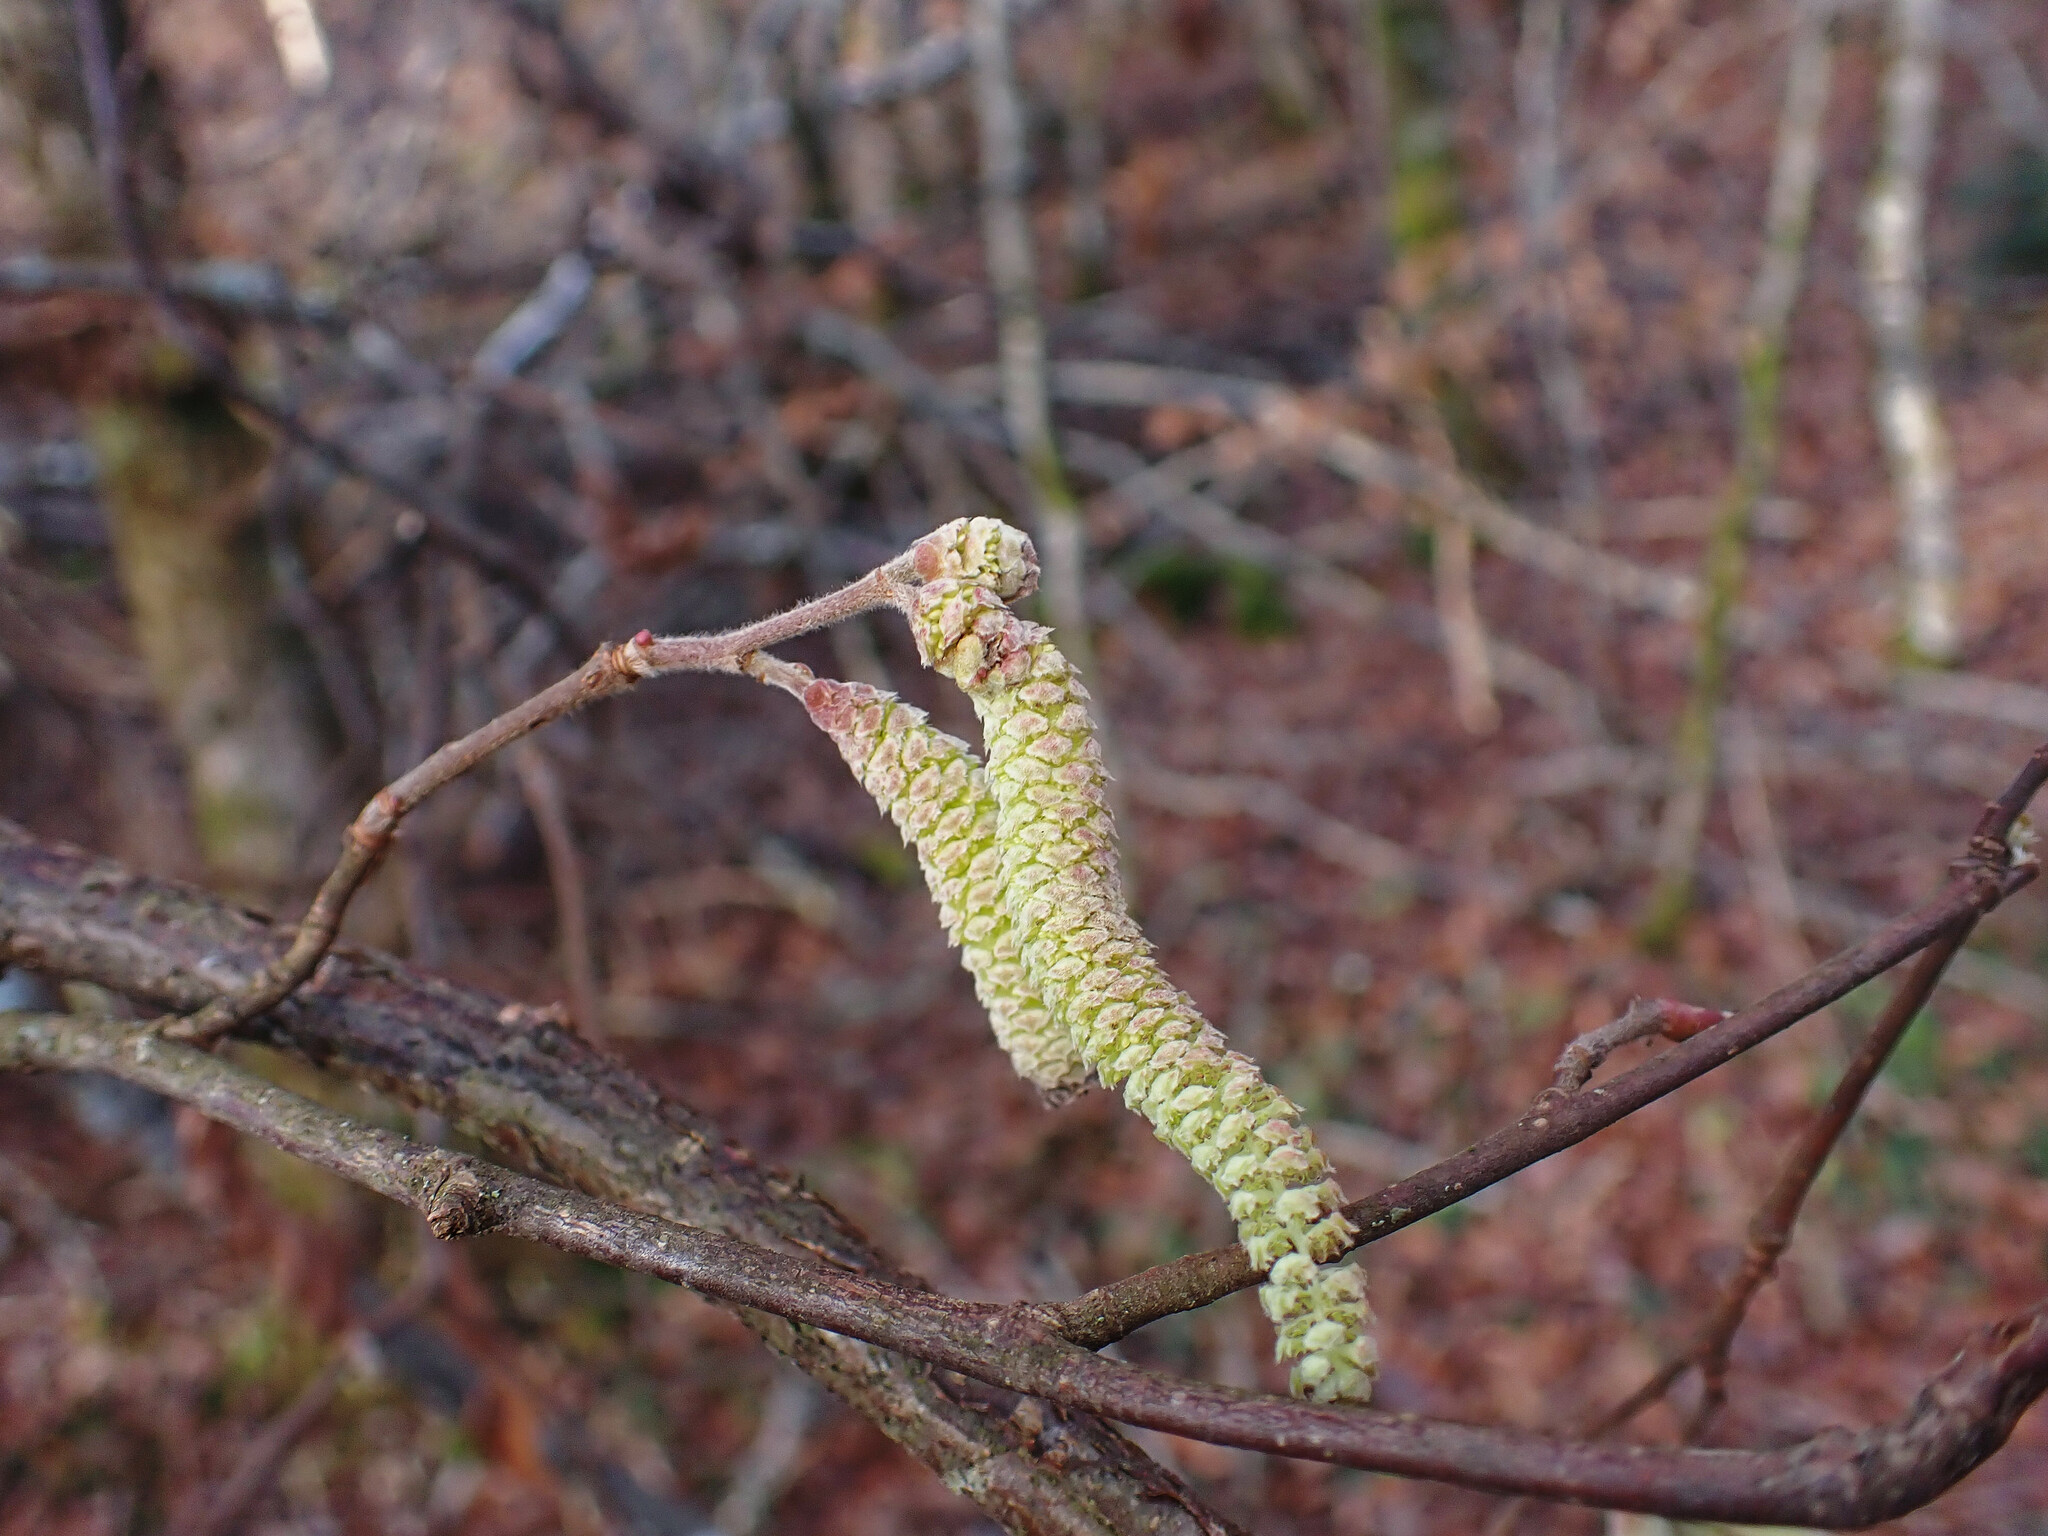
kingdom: Plantae
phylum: Tracheophyta
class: Magnoliopsida
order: Fagales
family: Betulaceae
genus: Corylus
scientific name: Corylus avellana
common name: European hazel
